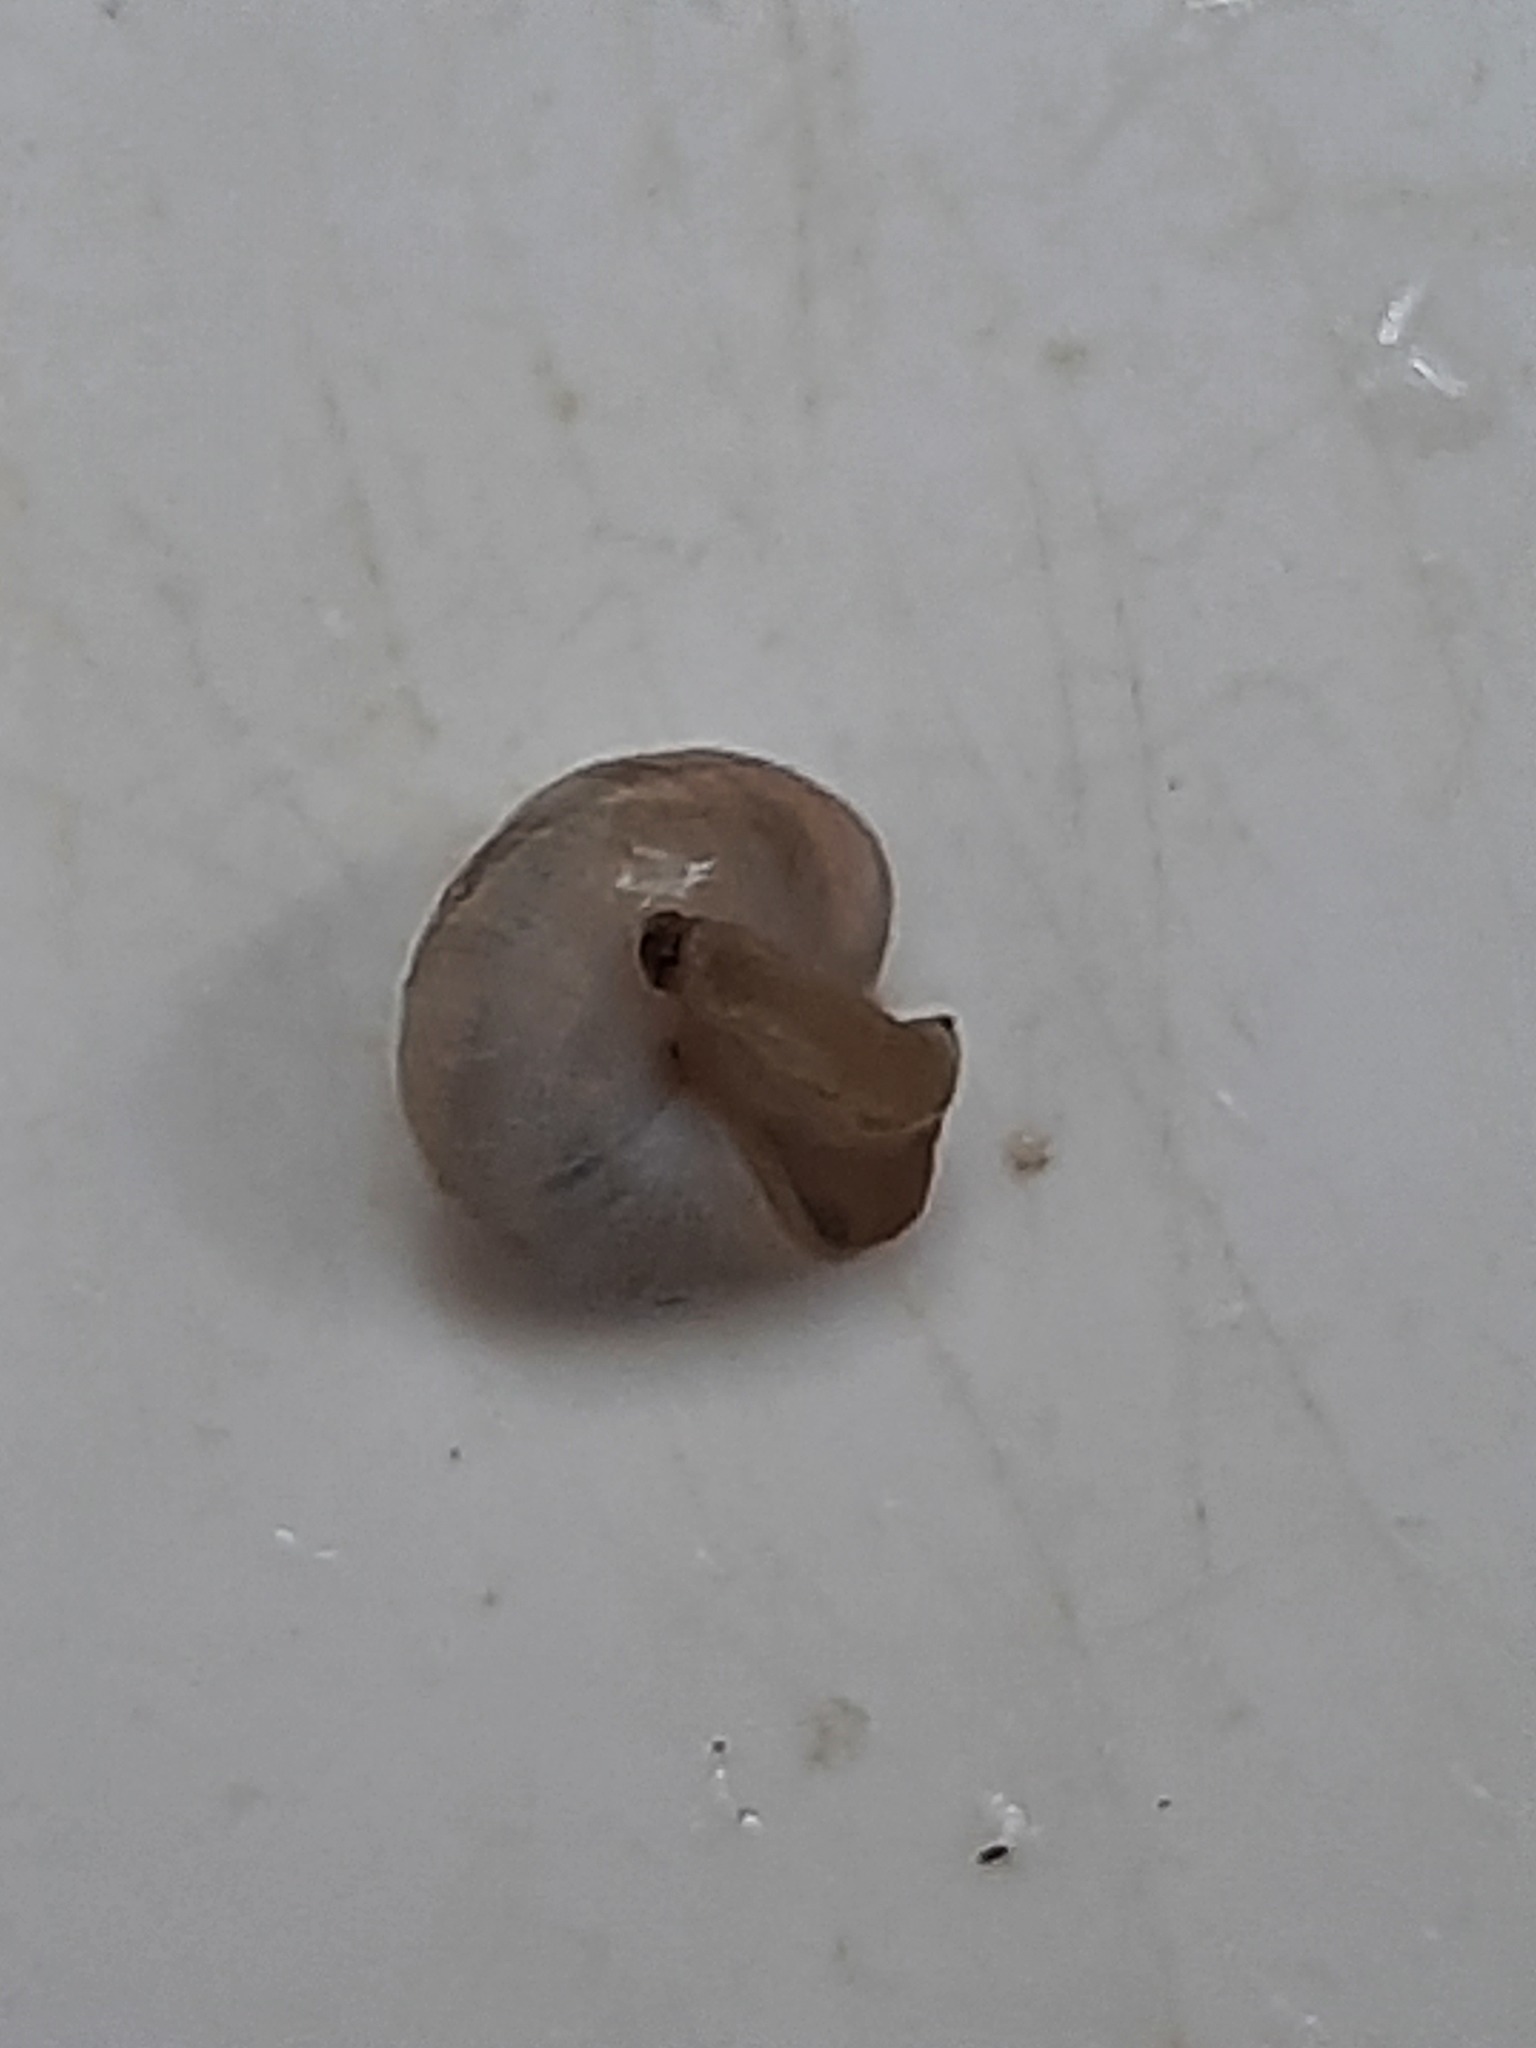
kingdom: Animalia
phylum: Mollusca
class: Gastropoda
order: Stylommatophora
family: Charopidae
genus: Serpho
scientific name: Serpho
